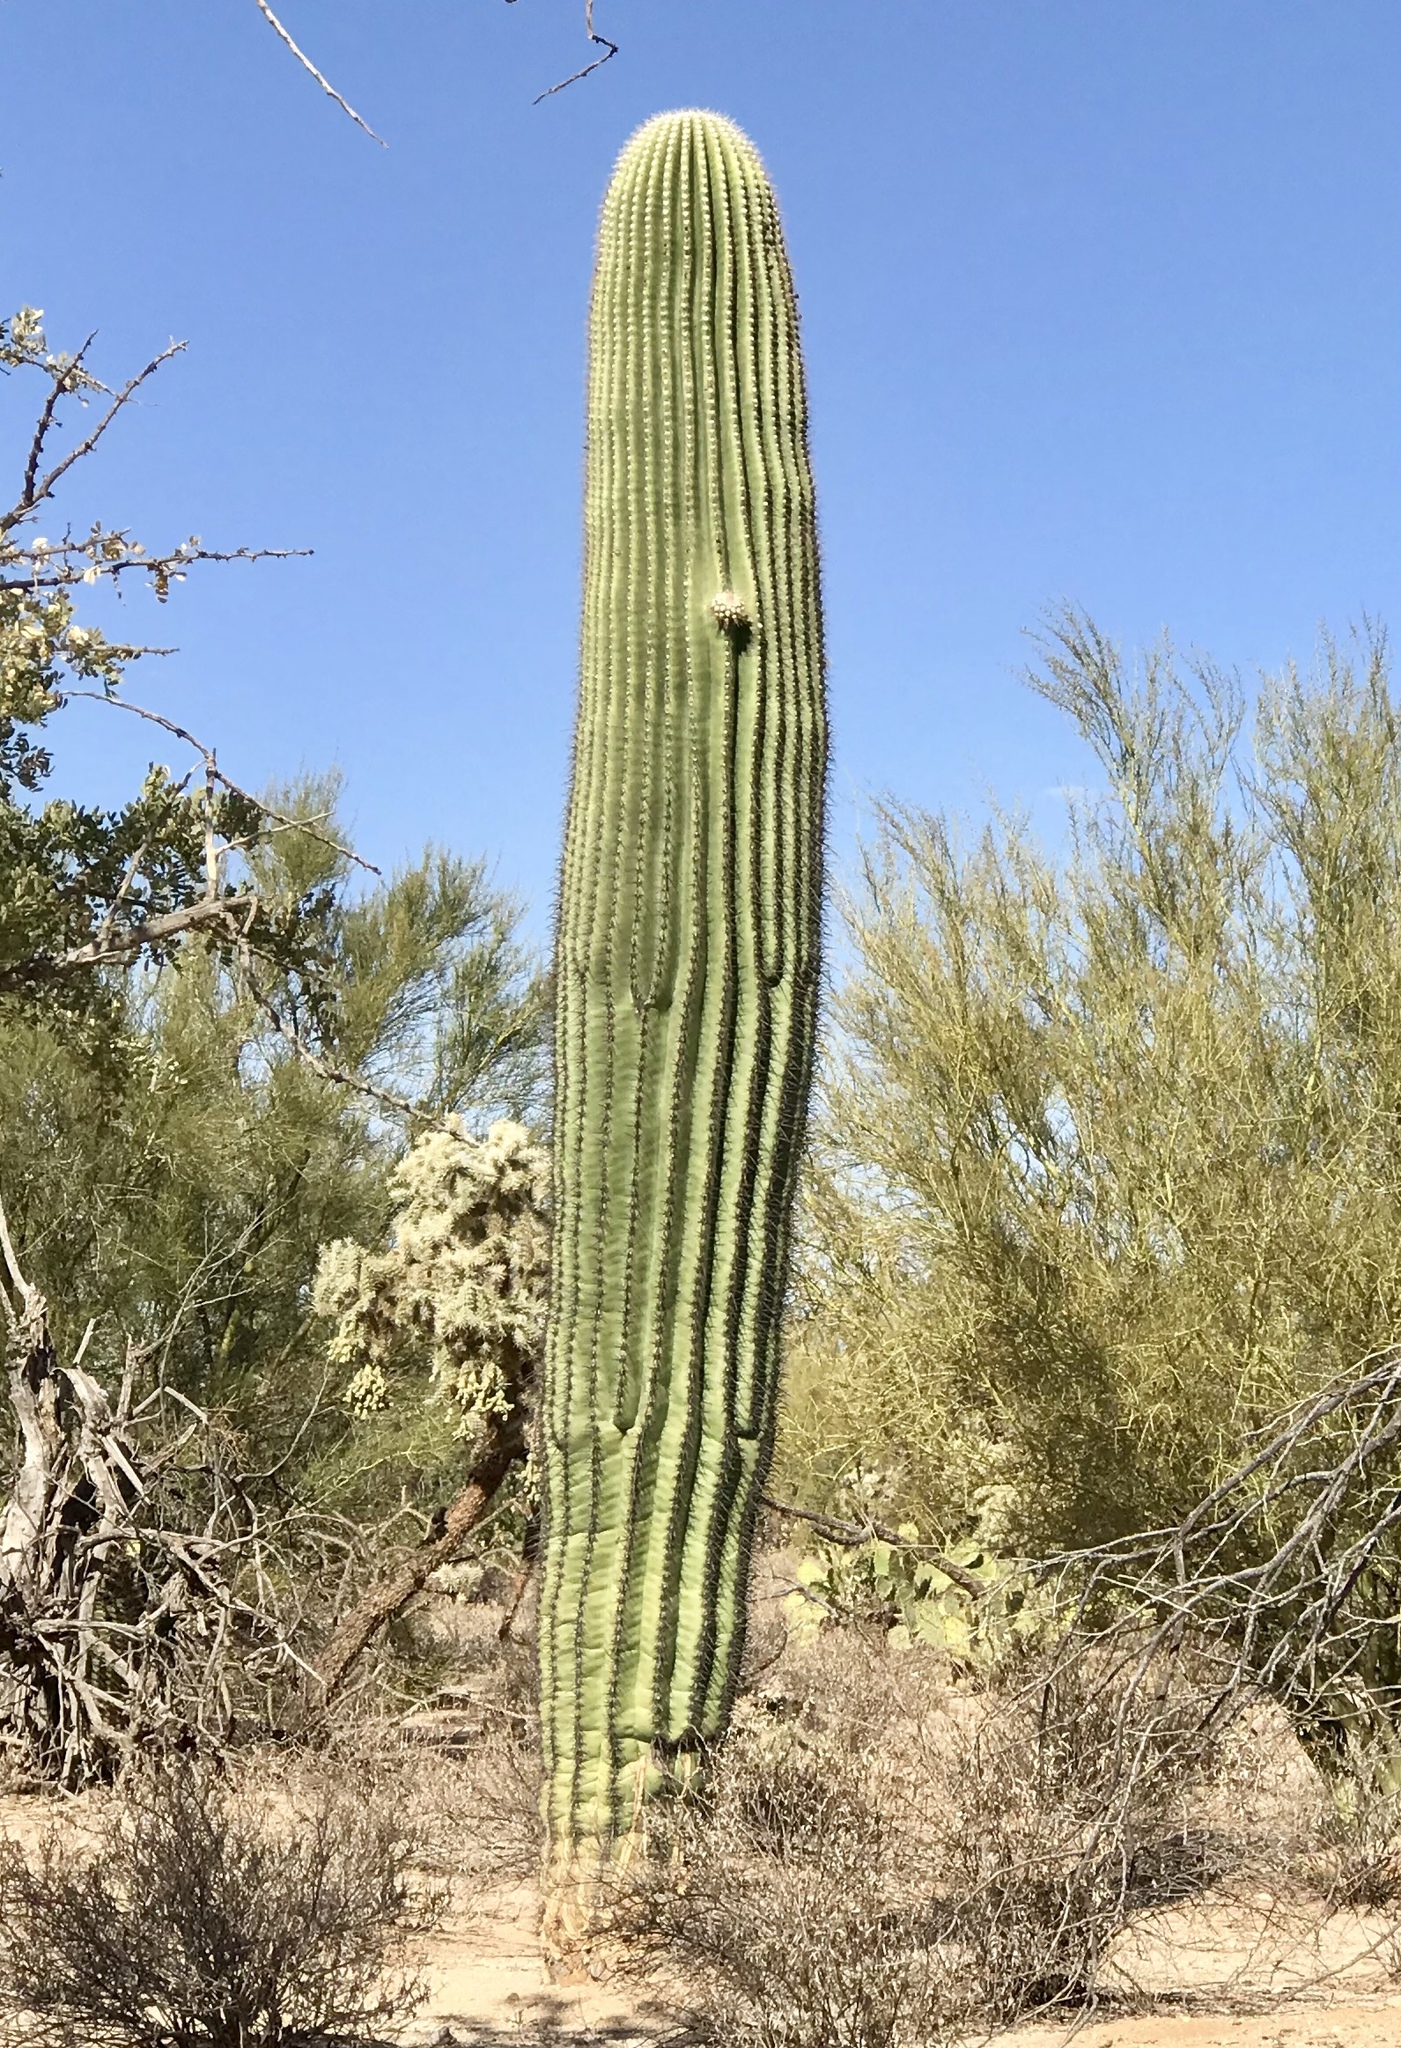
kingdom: Plantae
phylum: Tracheophyta
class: Magnoliopsida
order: Caryophyllales
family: Cactaceae
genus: Carnegiea
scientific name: Carnegiea gigantea
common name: Saguaro
